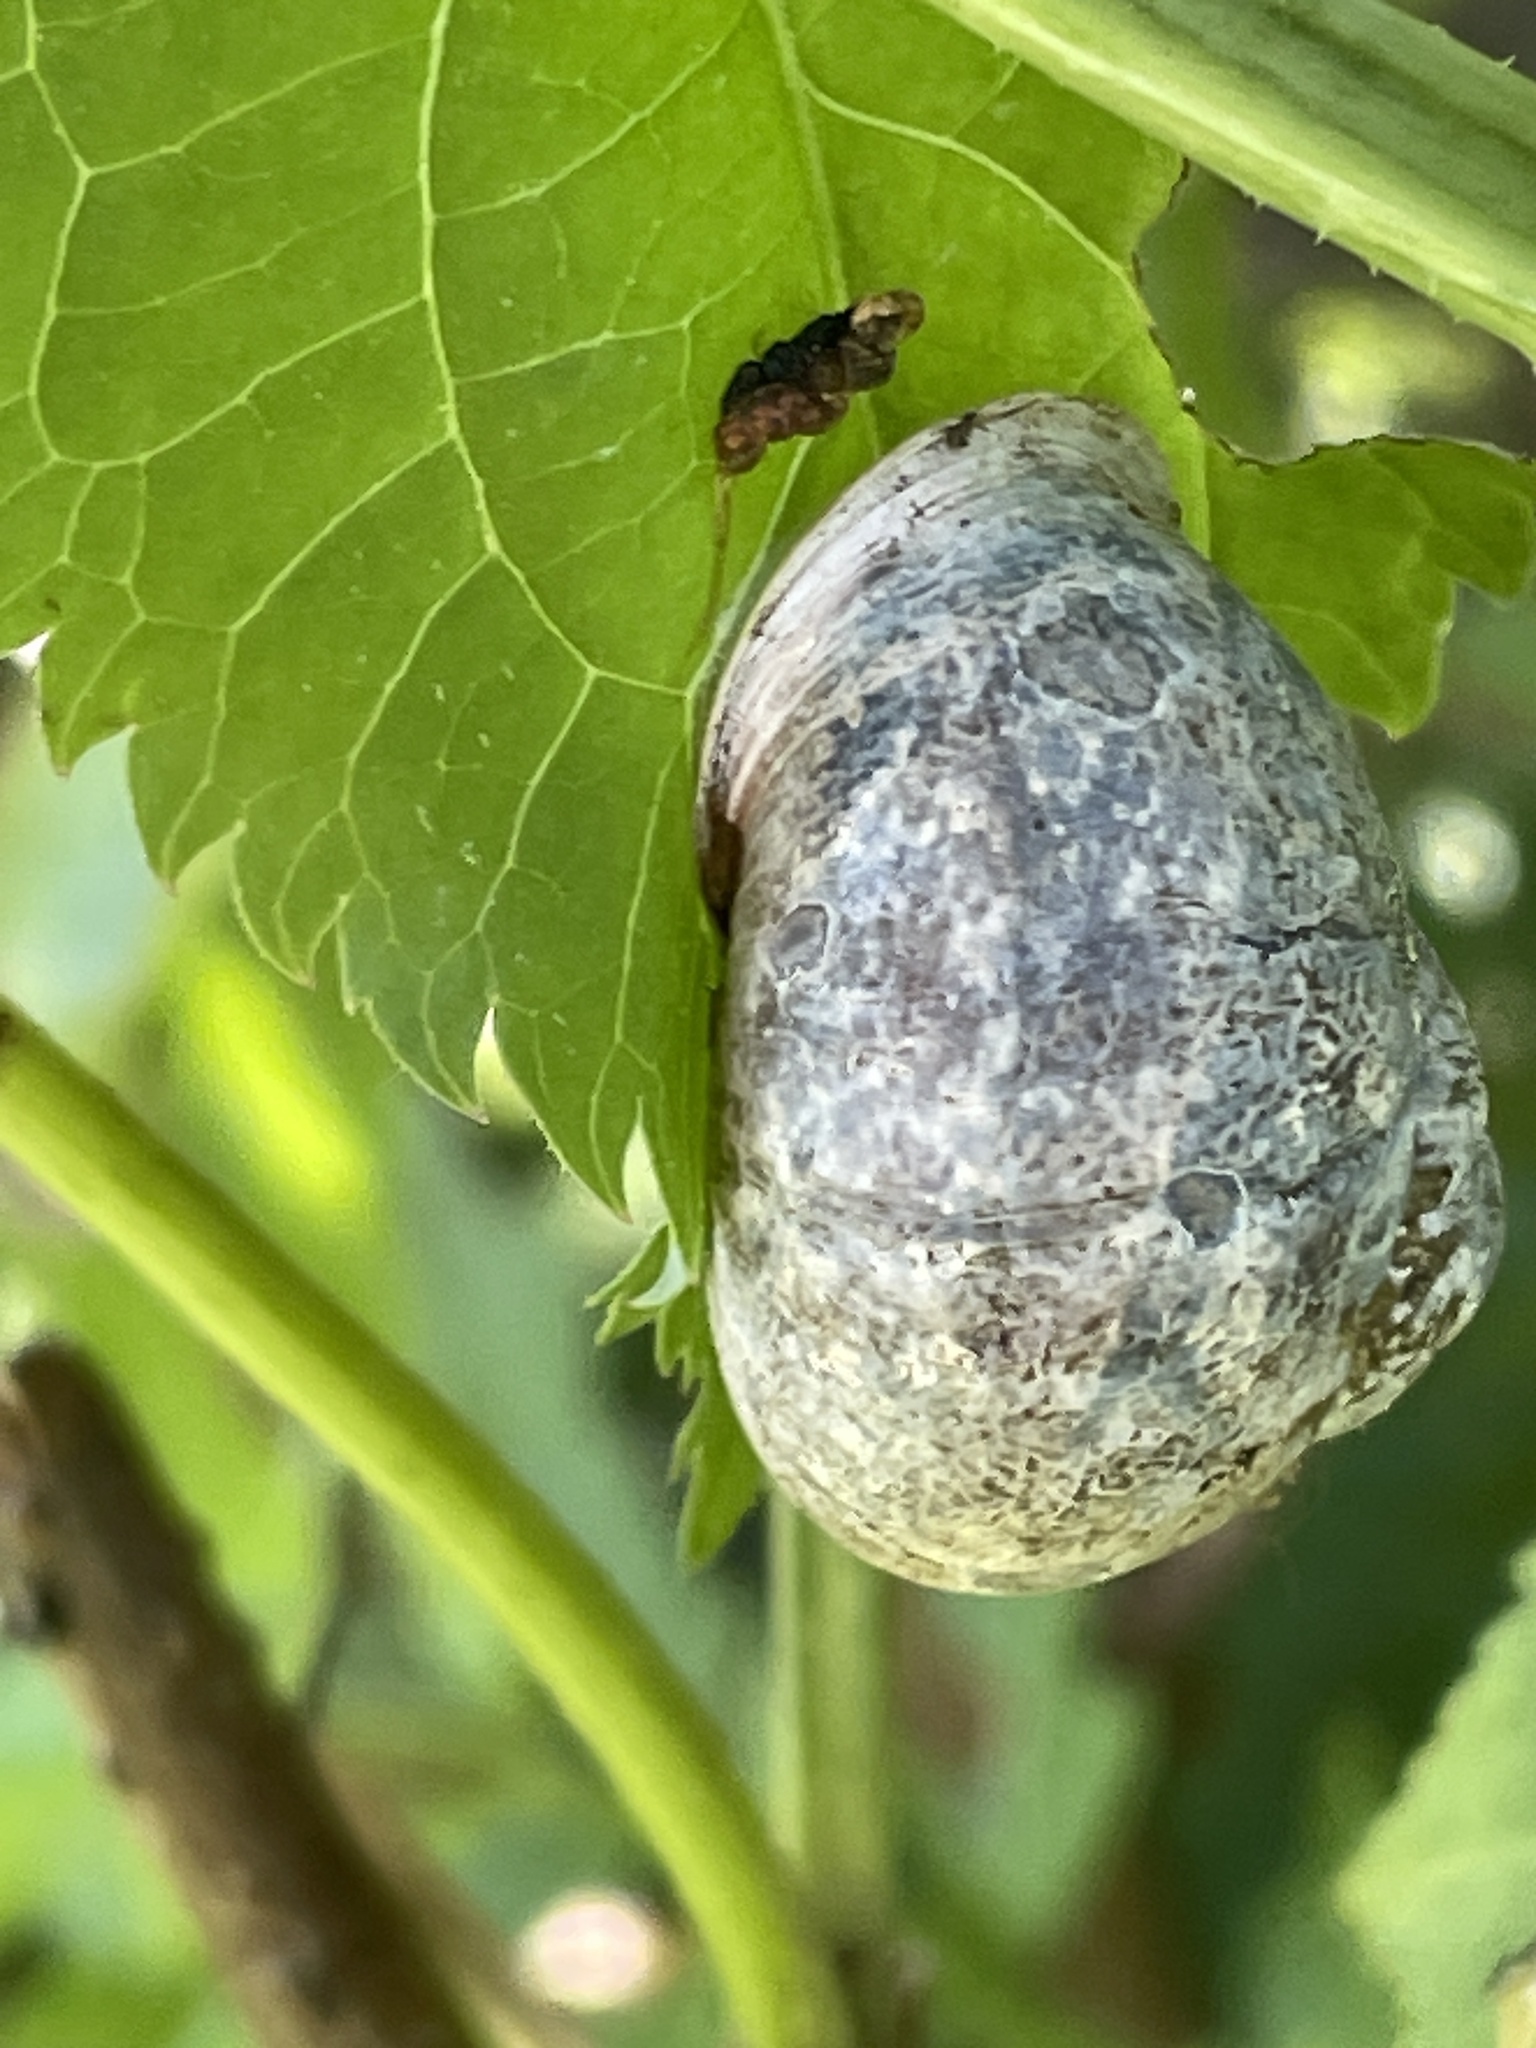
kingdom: Animalia
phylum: Mollusca
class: Gastropoda
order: Stylommatophora
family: Helicidae
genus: Cornu
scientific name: Cornu aspersum
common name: Brown garden snail
